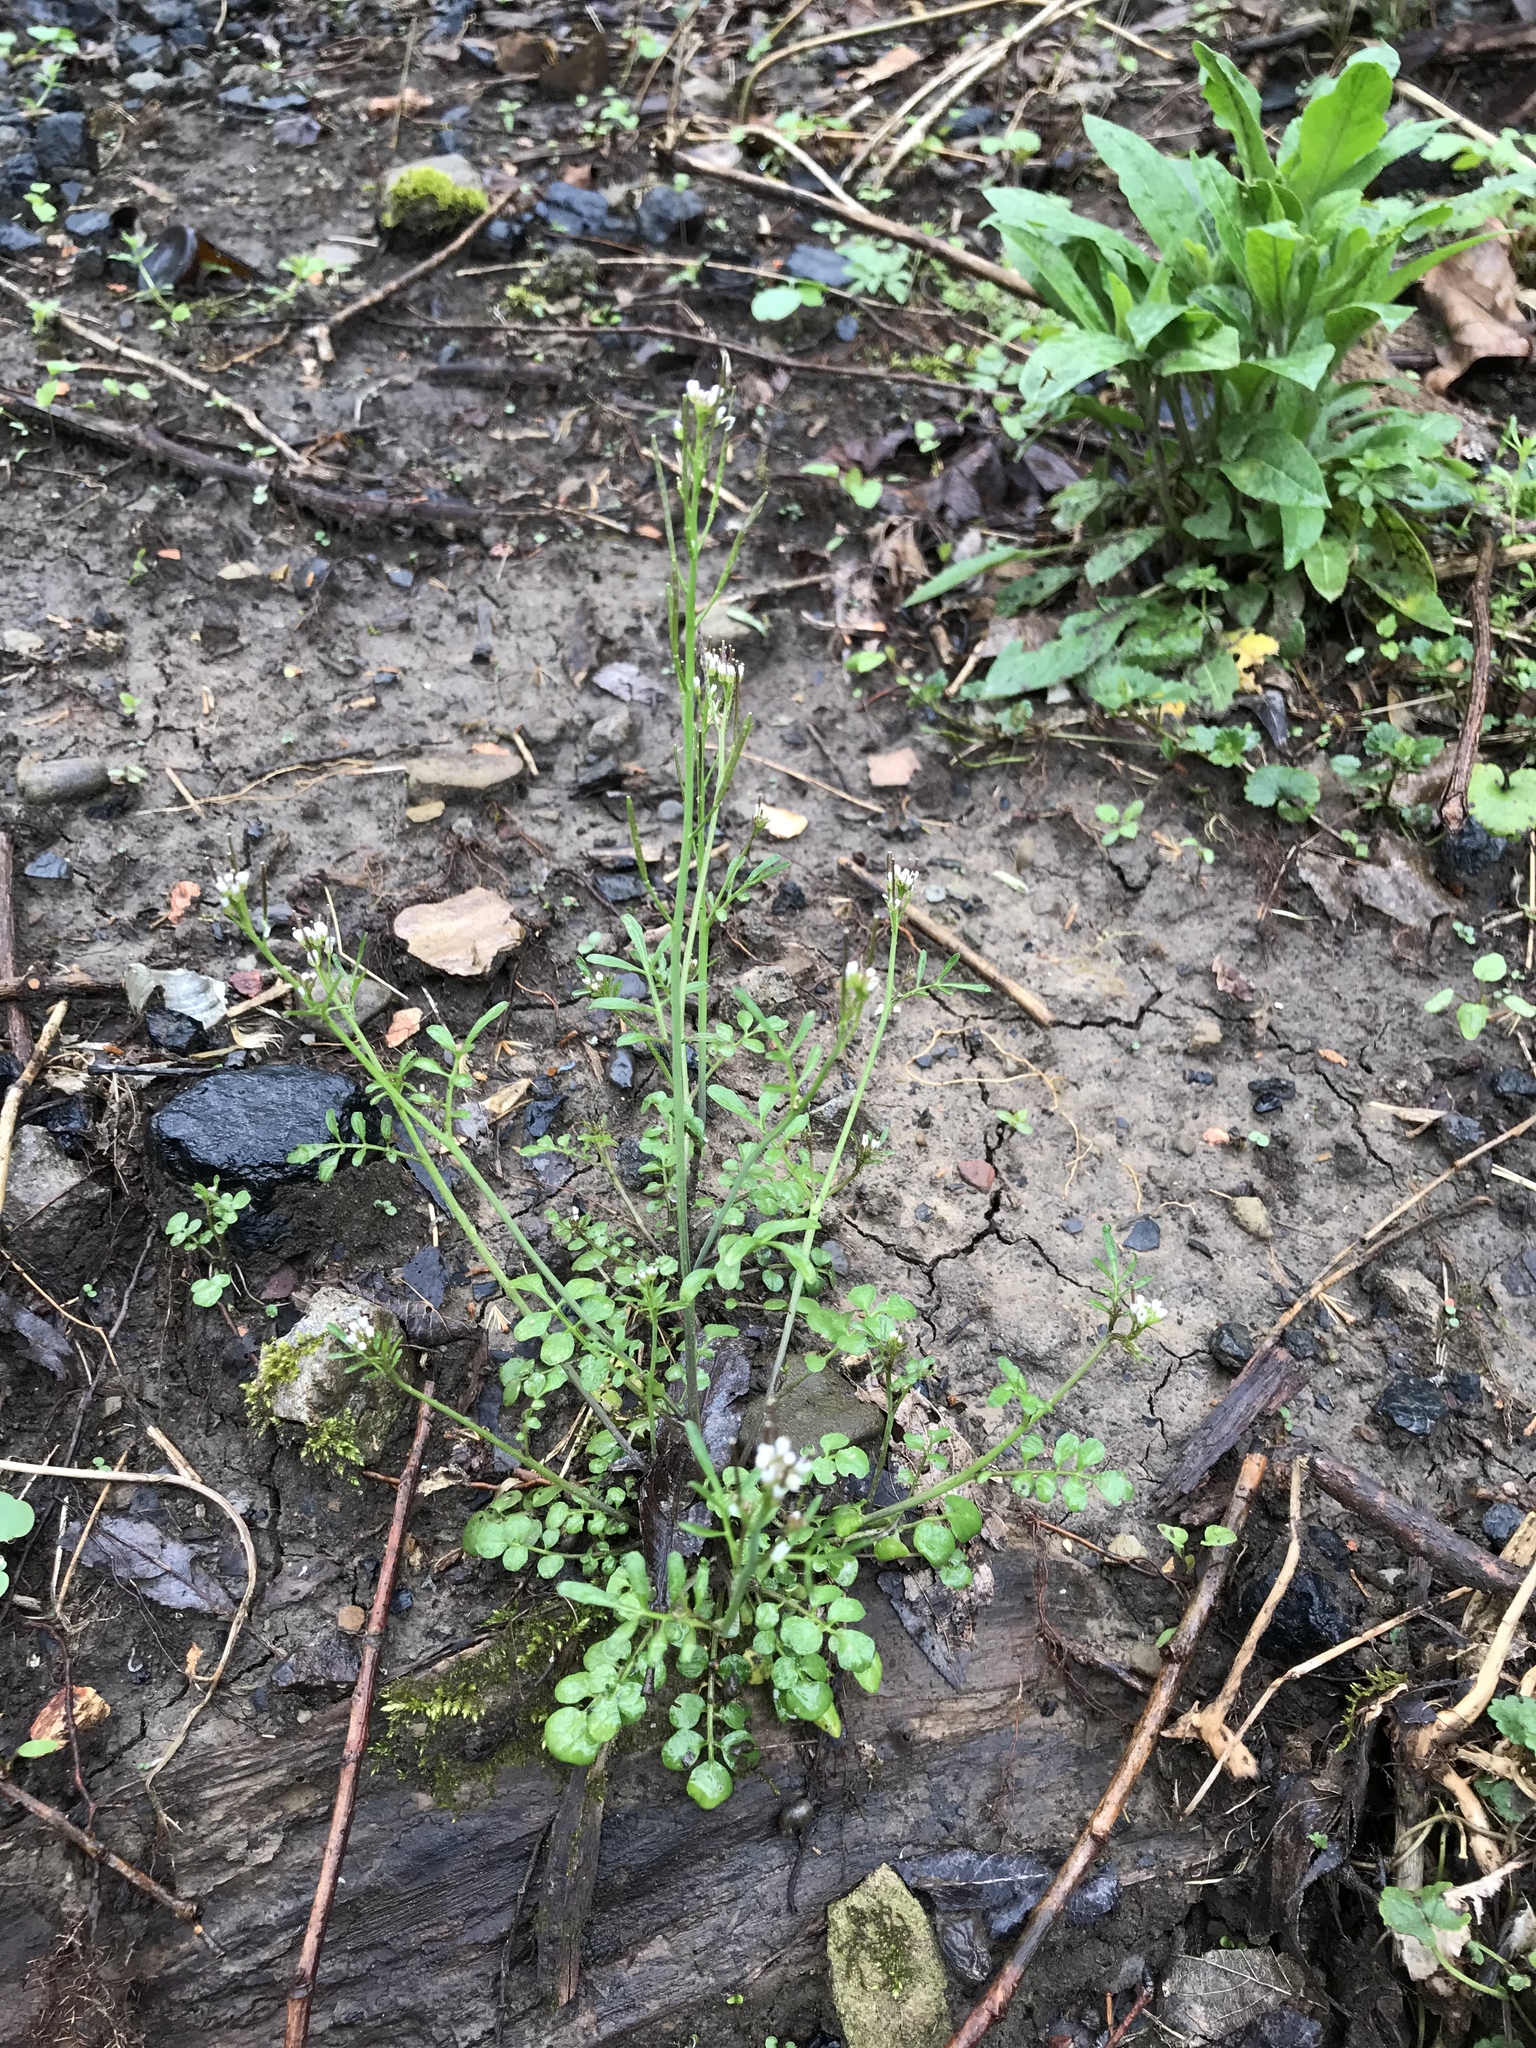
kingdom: Plantae
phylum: Tracheophyta
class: Magnoliopsida
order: Brassicales
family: Brassicaceae
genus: Cardamine
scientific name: Cardamine hirsuta
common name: Hairy bittercress
